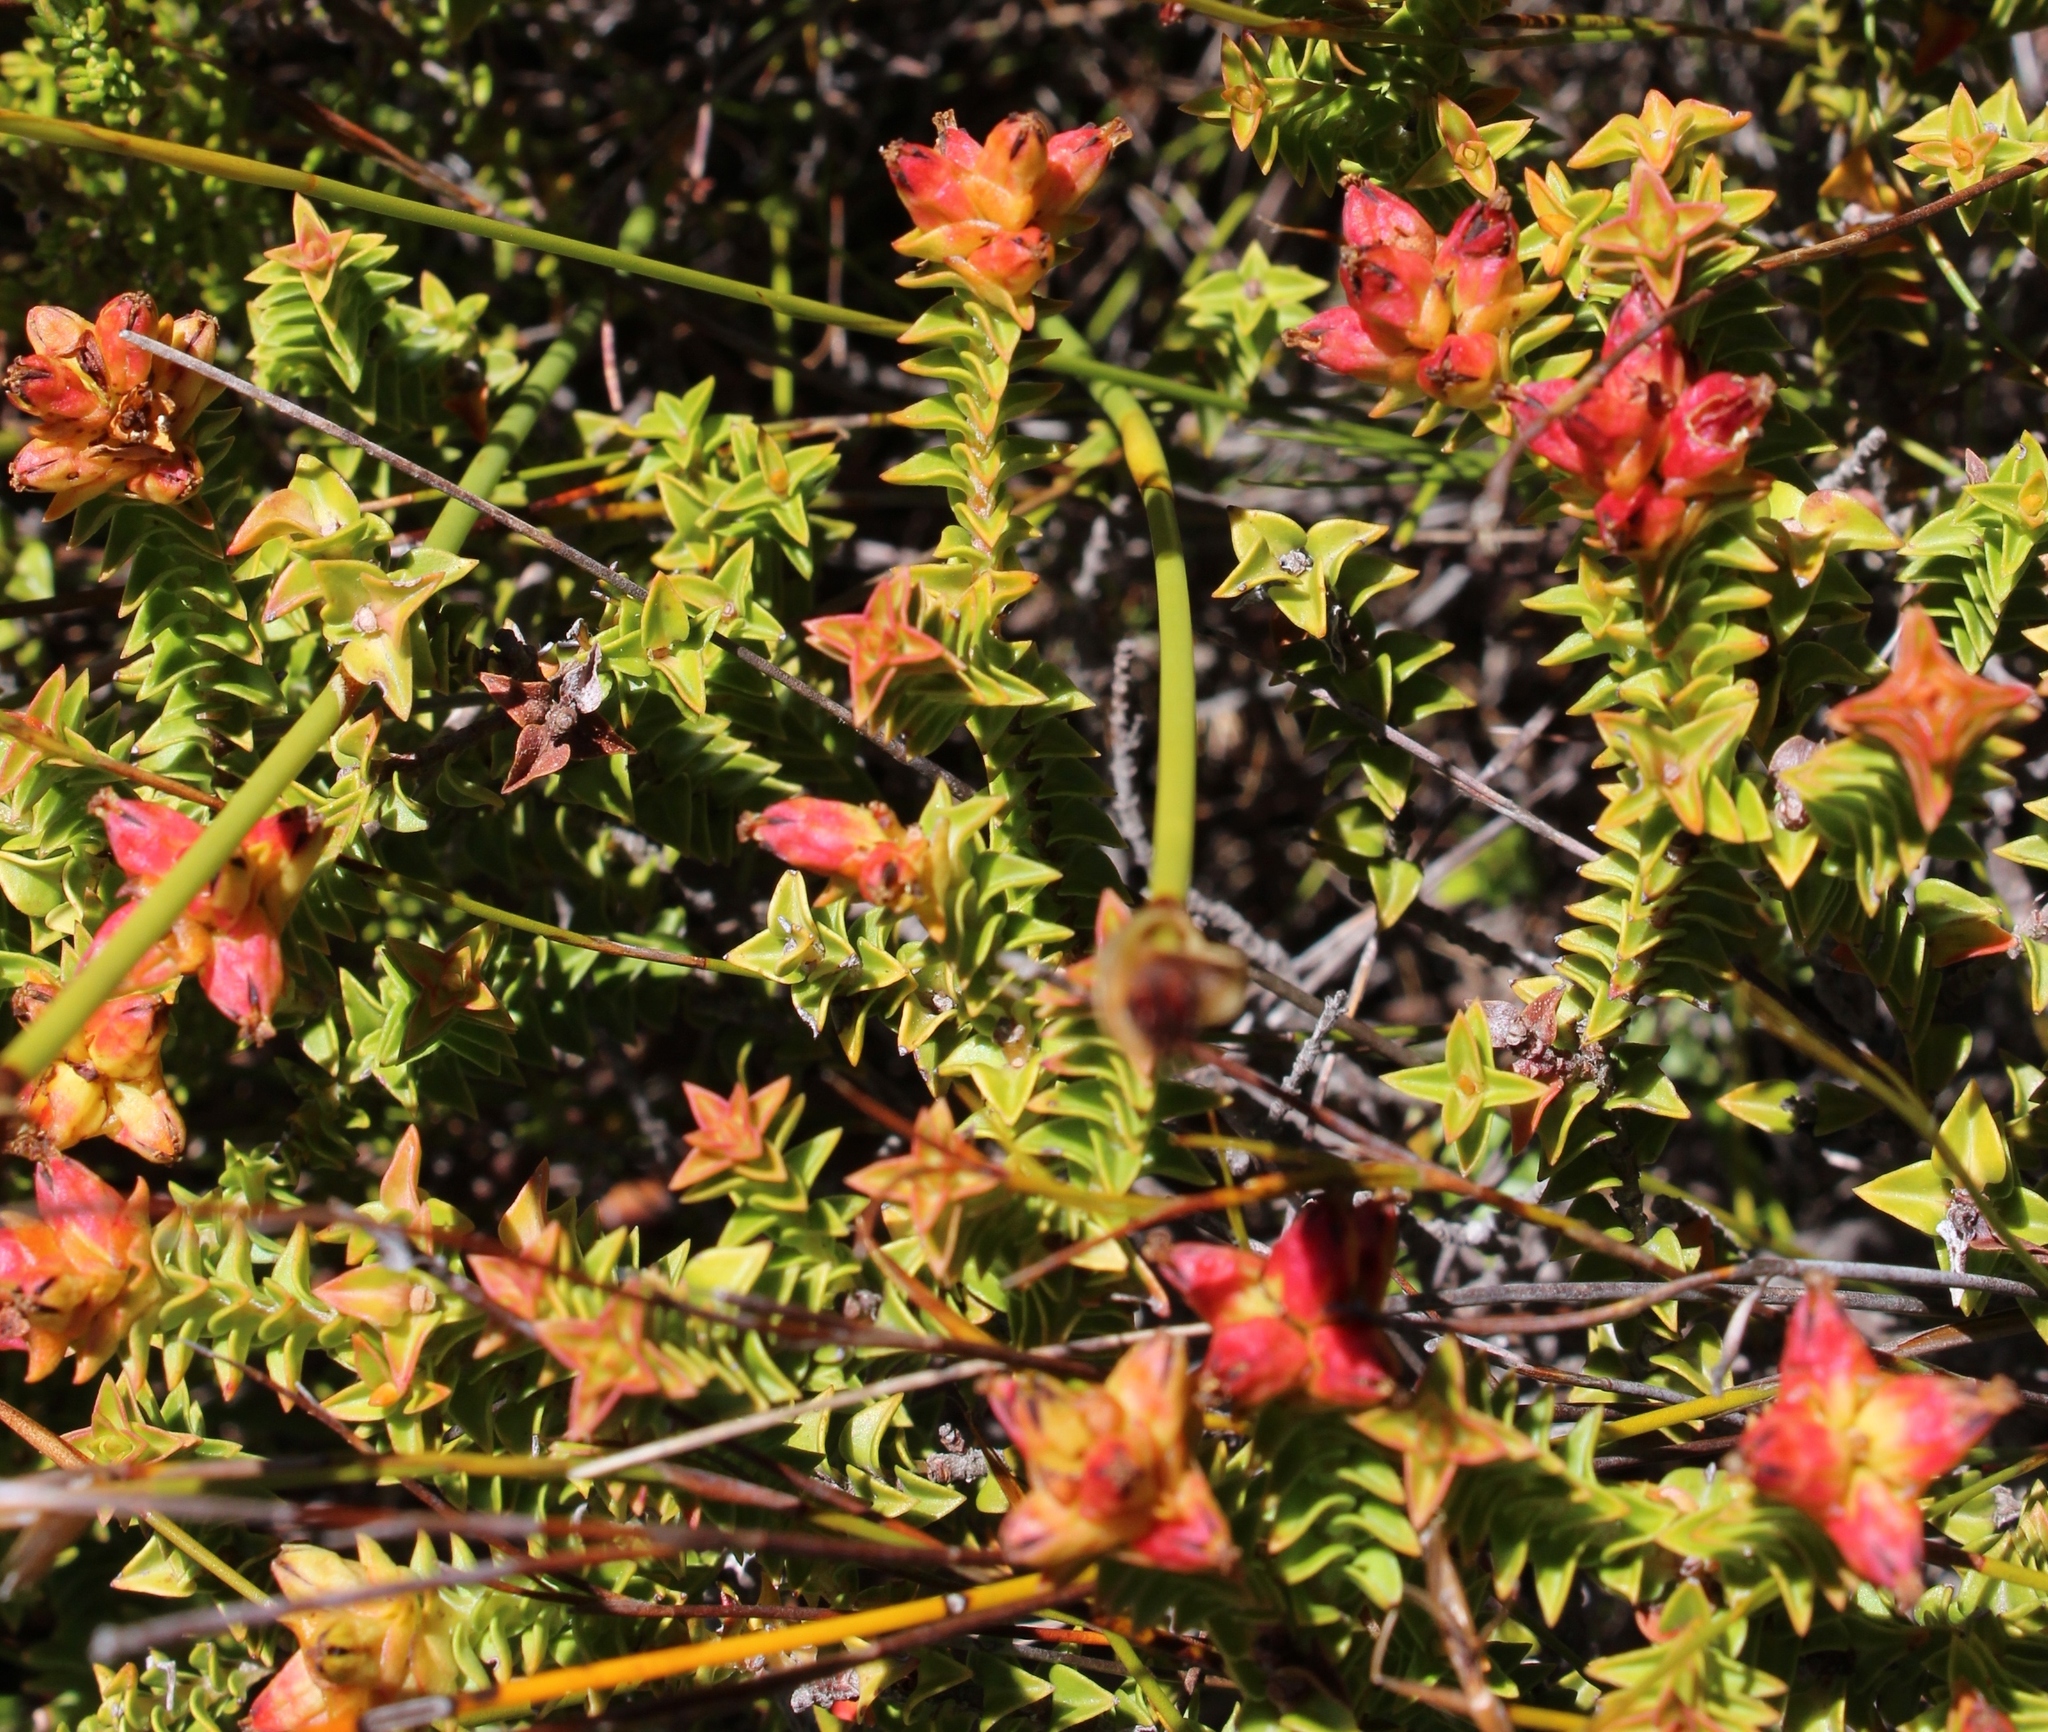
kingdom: Plantae
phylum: Tracheophyta
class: Magnoliopsida
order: Myrtales
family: Penaeaceae
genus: Penaea
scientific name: Penaea mucronata
